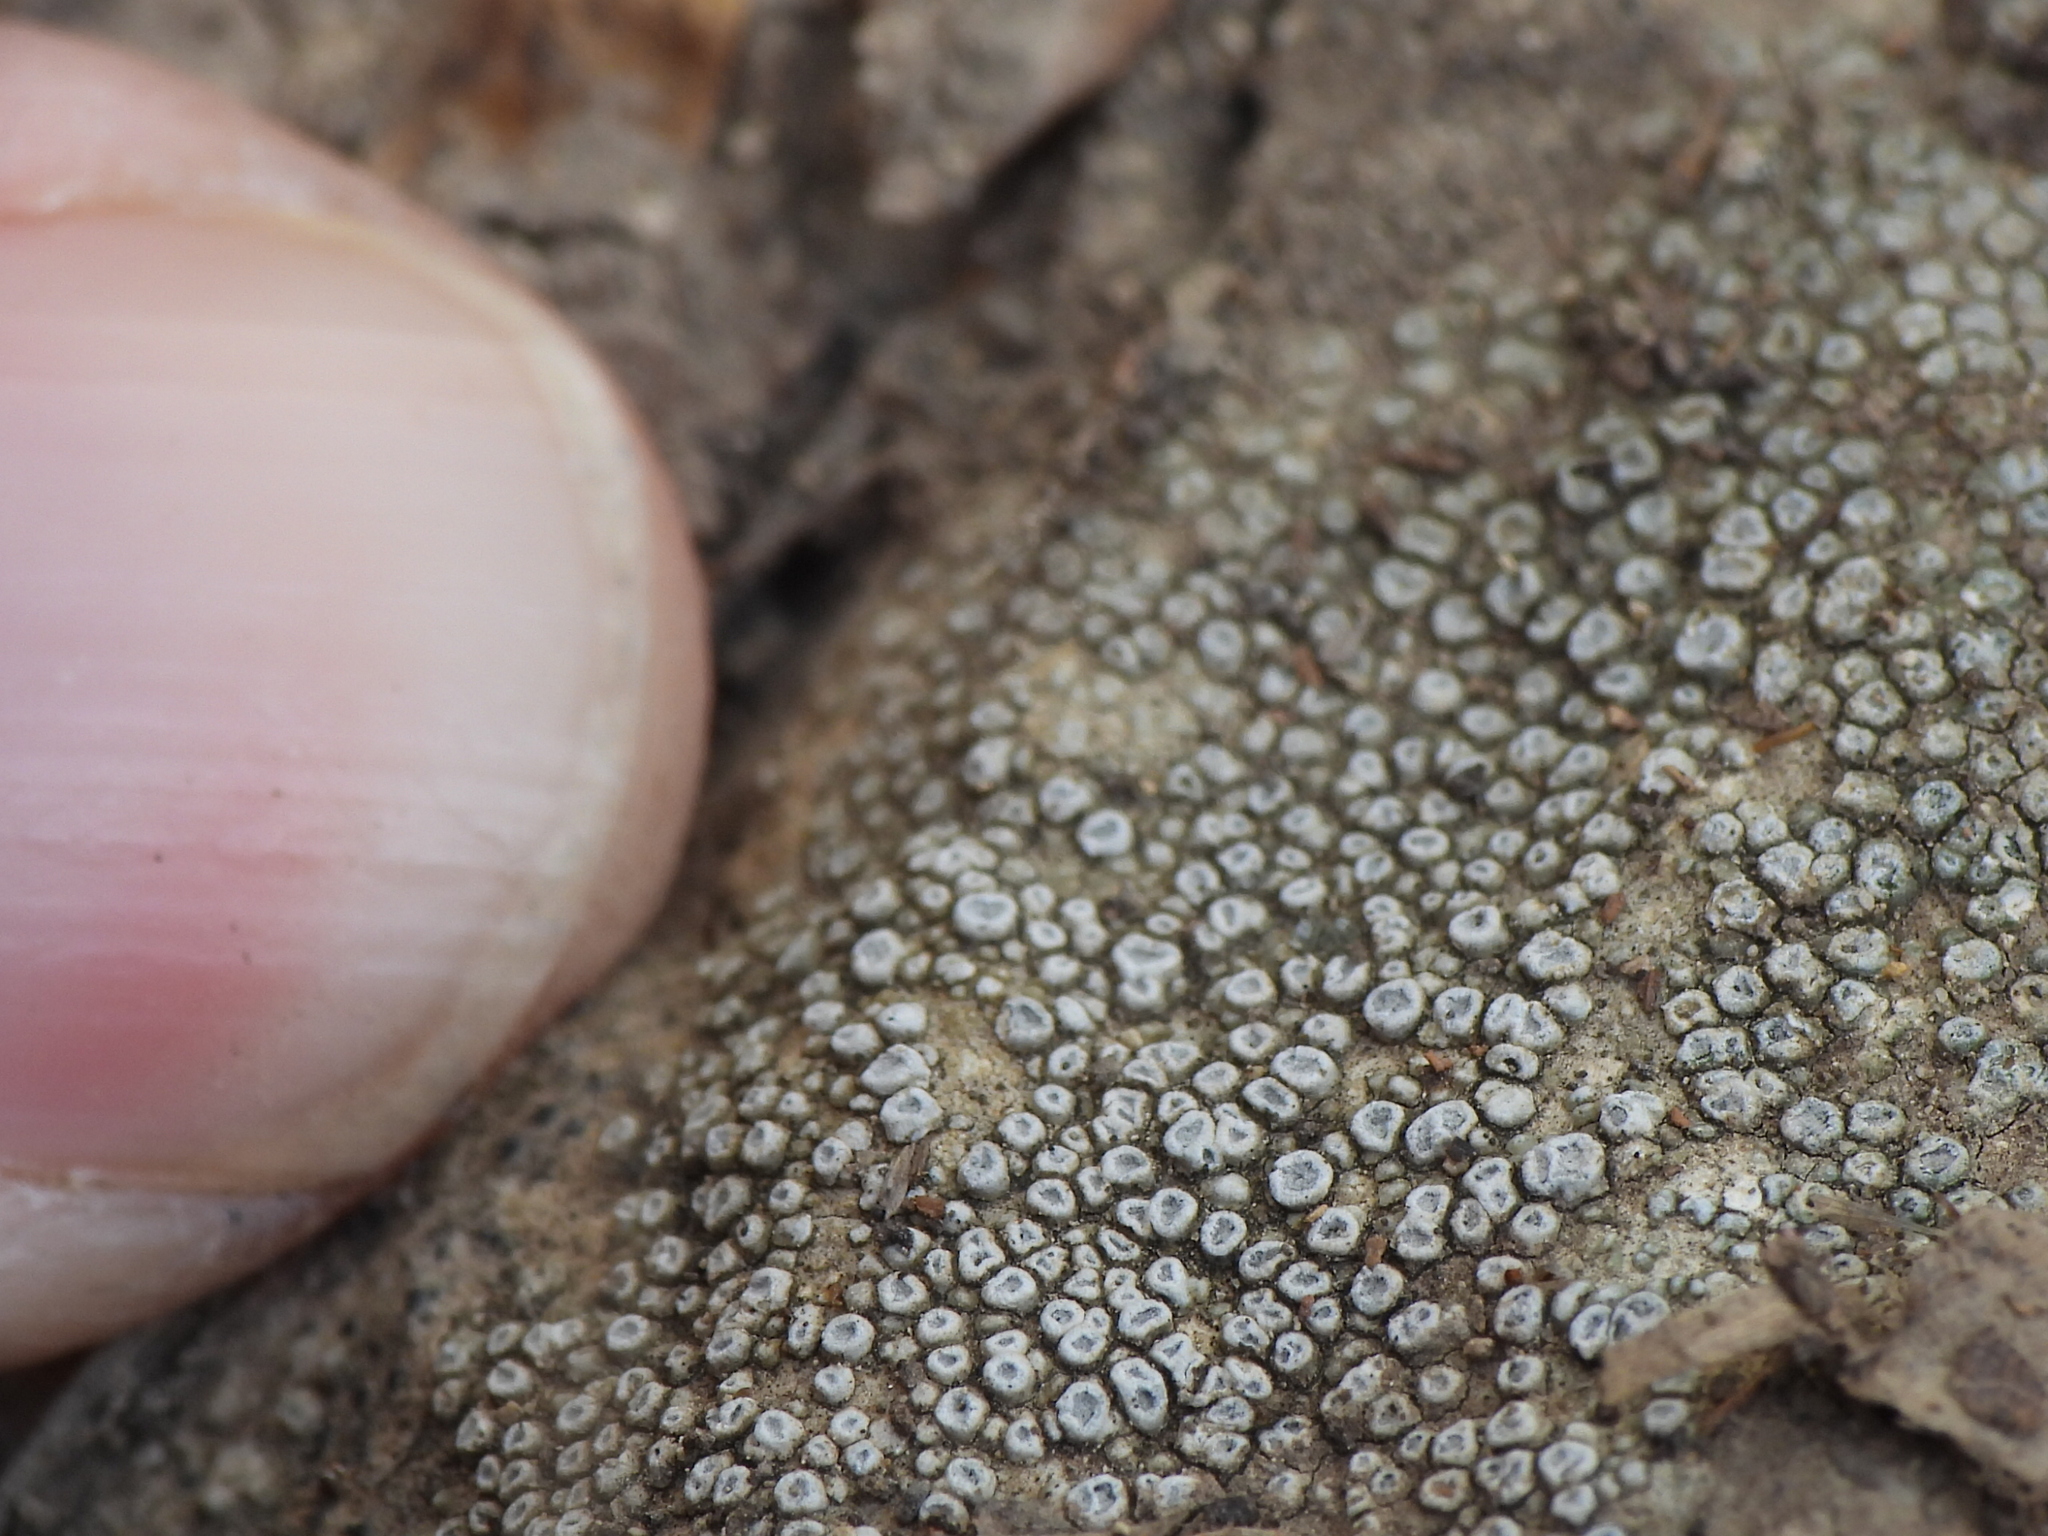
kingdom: Fungi
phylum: Ascomycota
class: Lecanoromycetes
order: Pertusariales
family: Megasporaceae
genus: Circinaria
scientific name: Circinaria contorta
